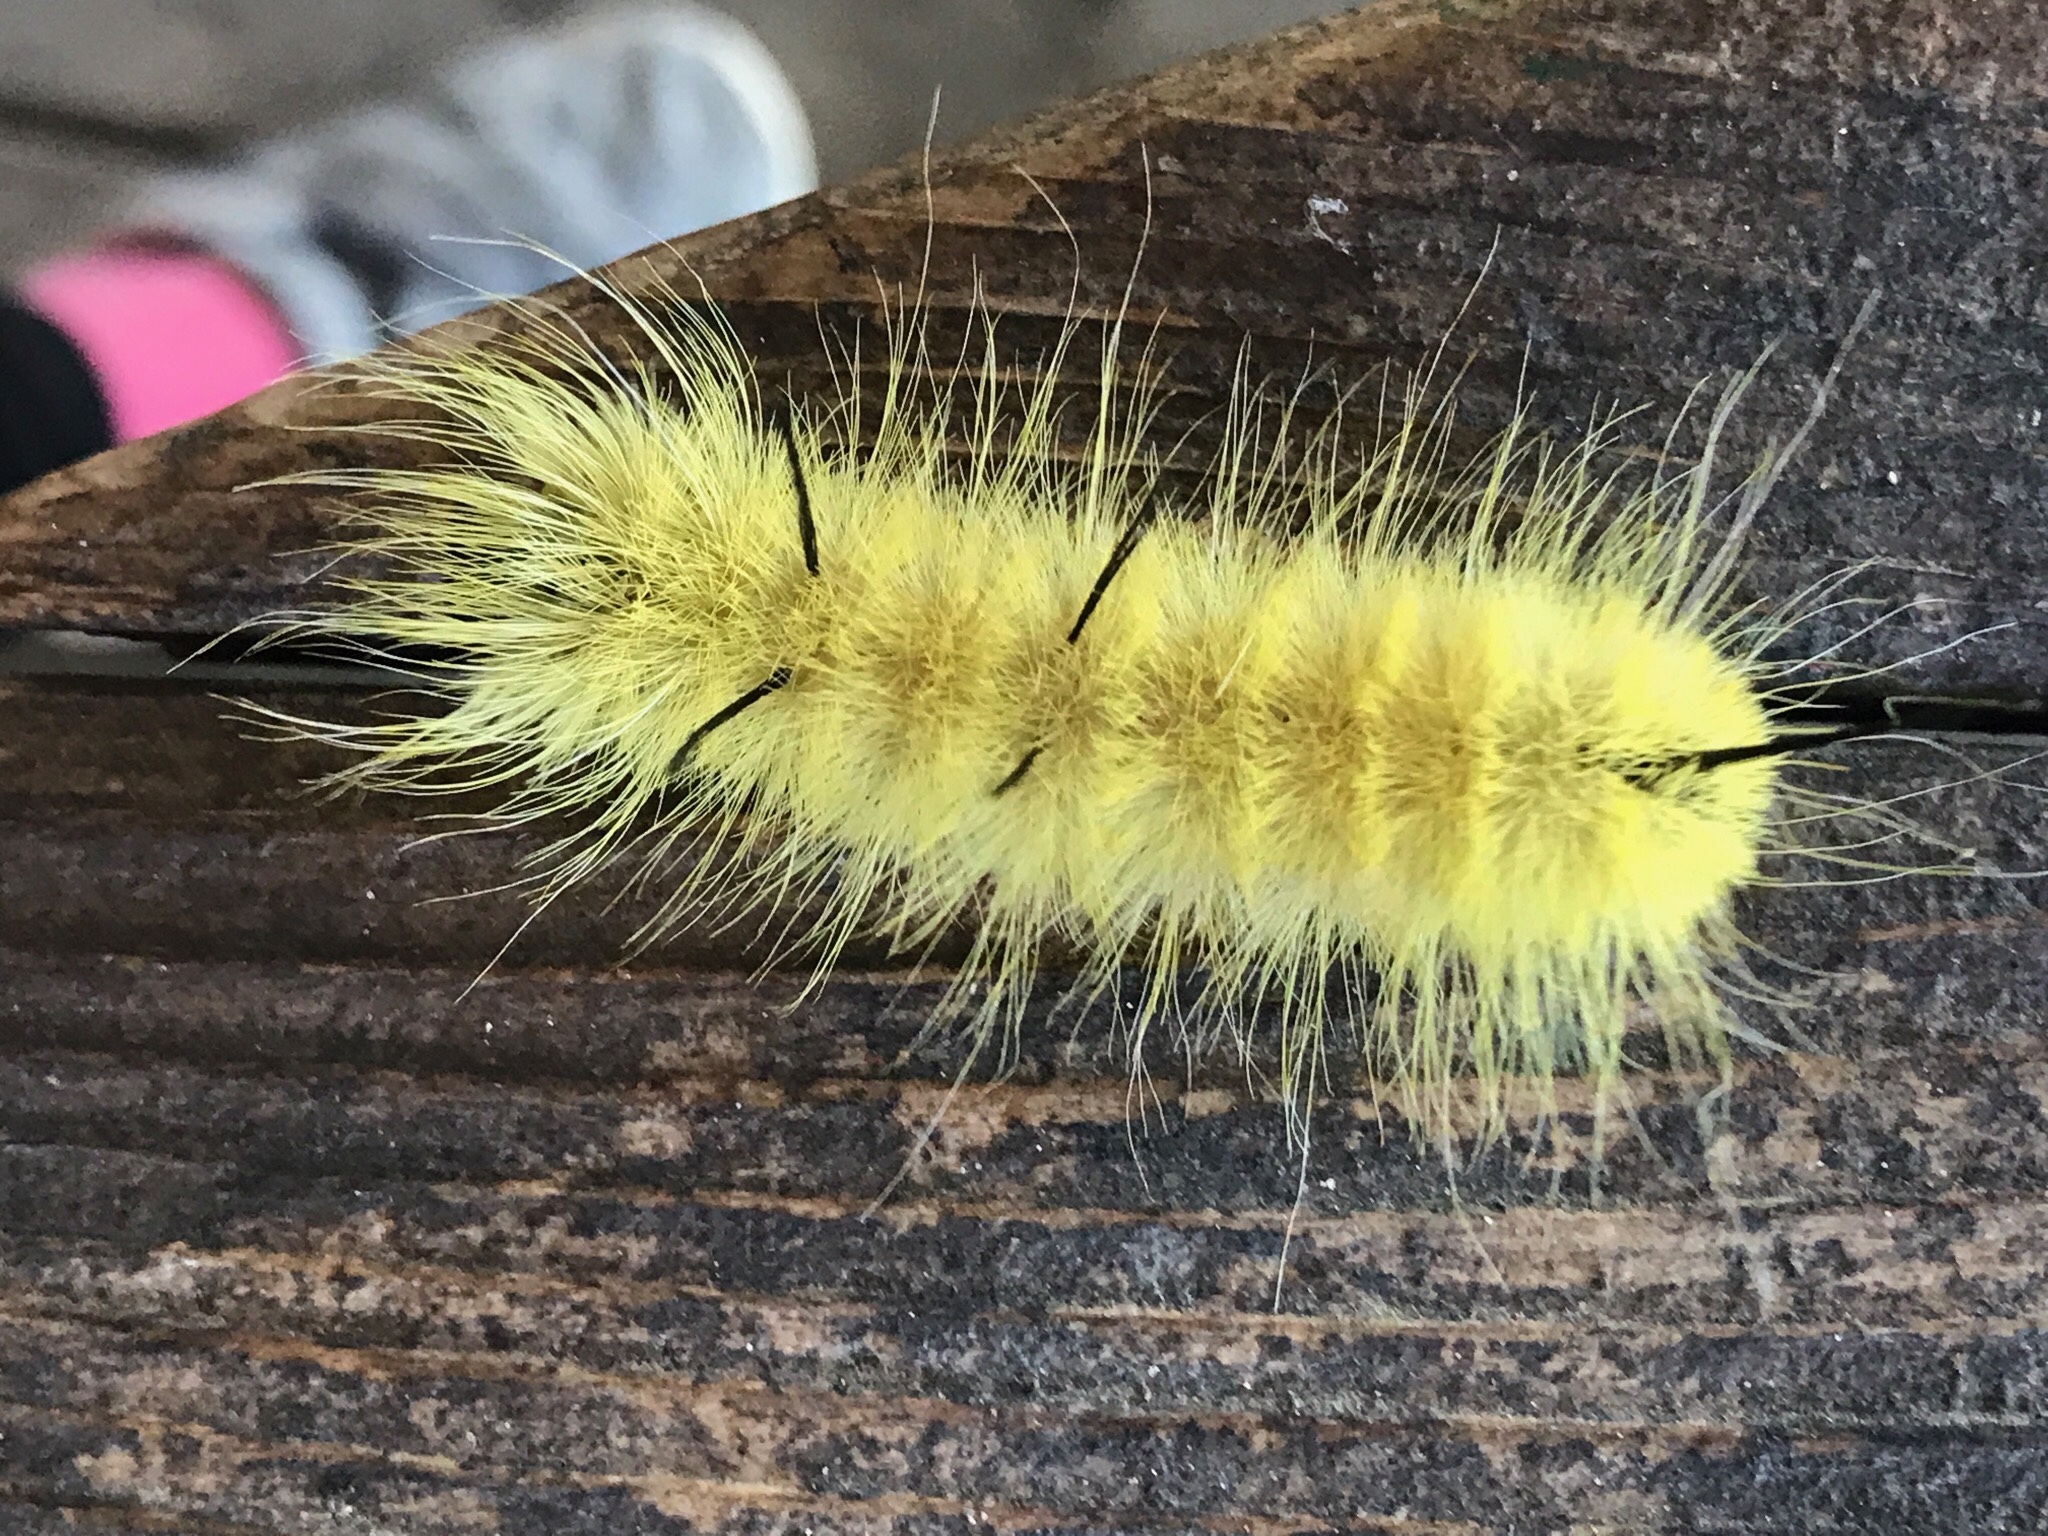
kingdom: Animalia
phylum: Arthropoda
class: Insecta
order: Lepidoptera
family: Noctuidae
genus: Acronicta
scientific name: Acronicta americana
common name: American dagger
